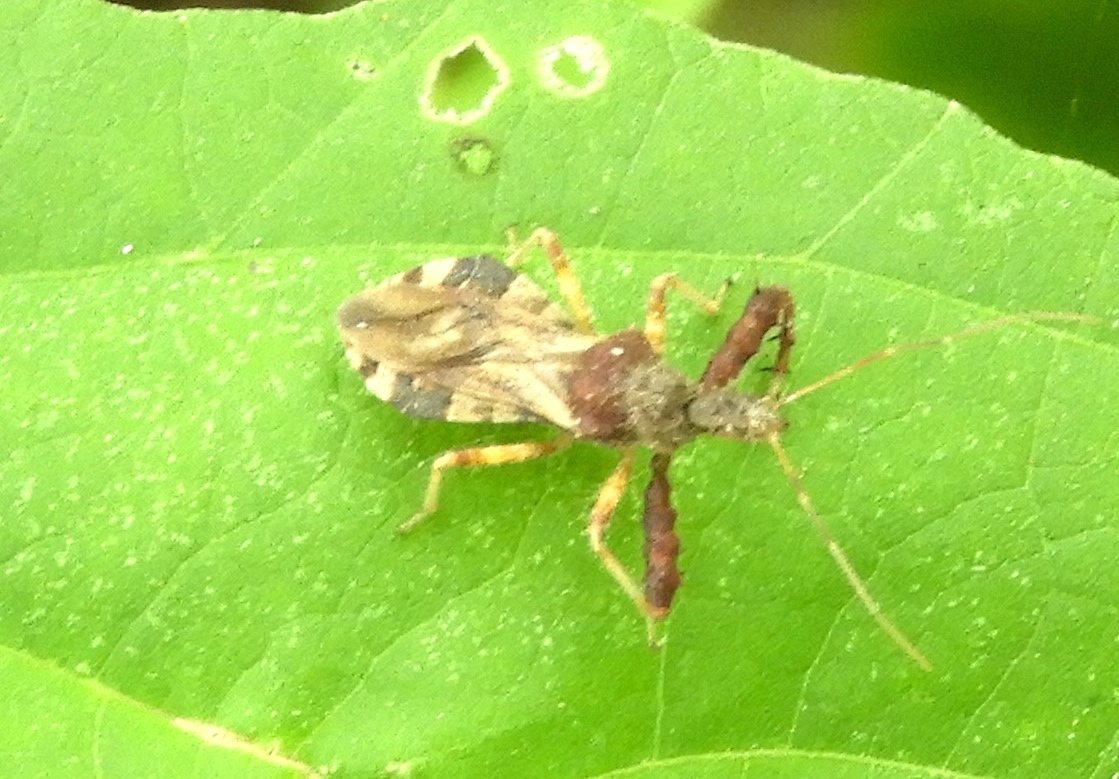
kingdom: Animalia
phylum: Arthropoda
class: Insecta
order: Hemiptera
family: Reduviidae
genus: Sinea
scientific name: Sinea
